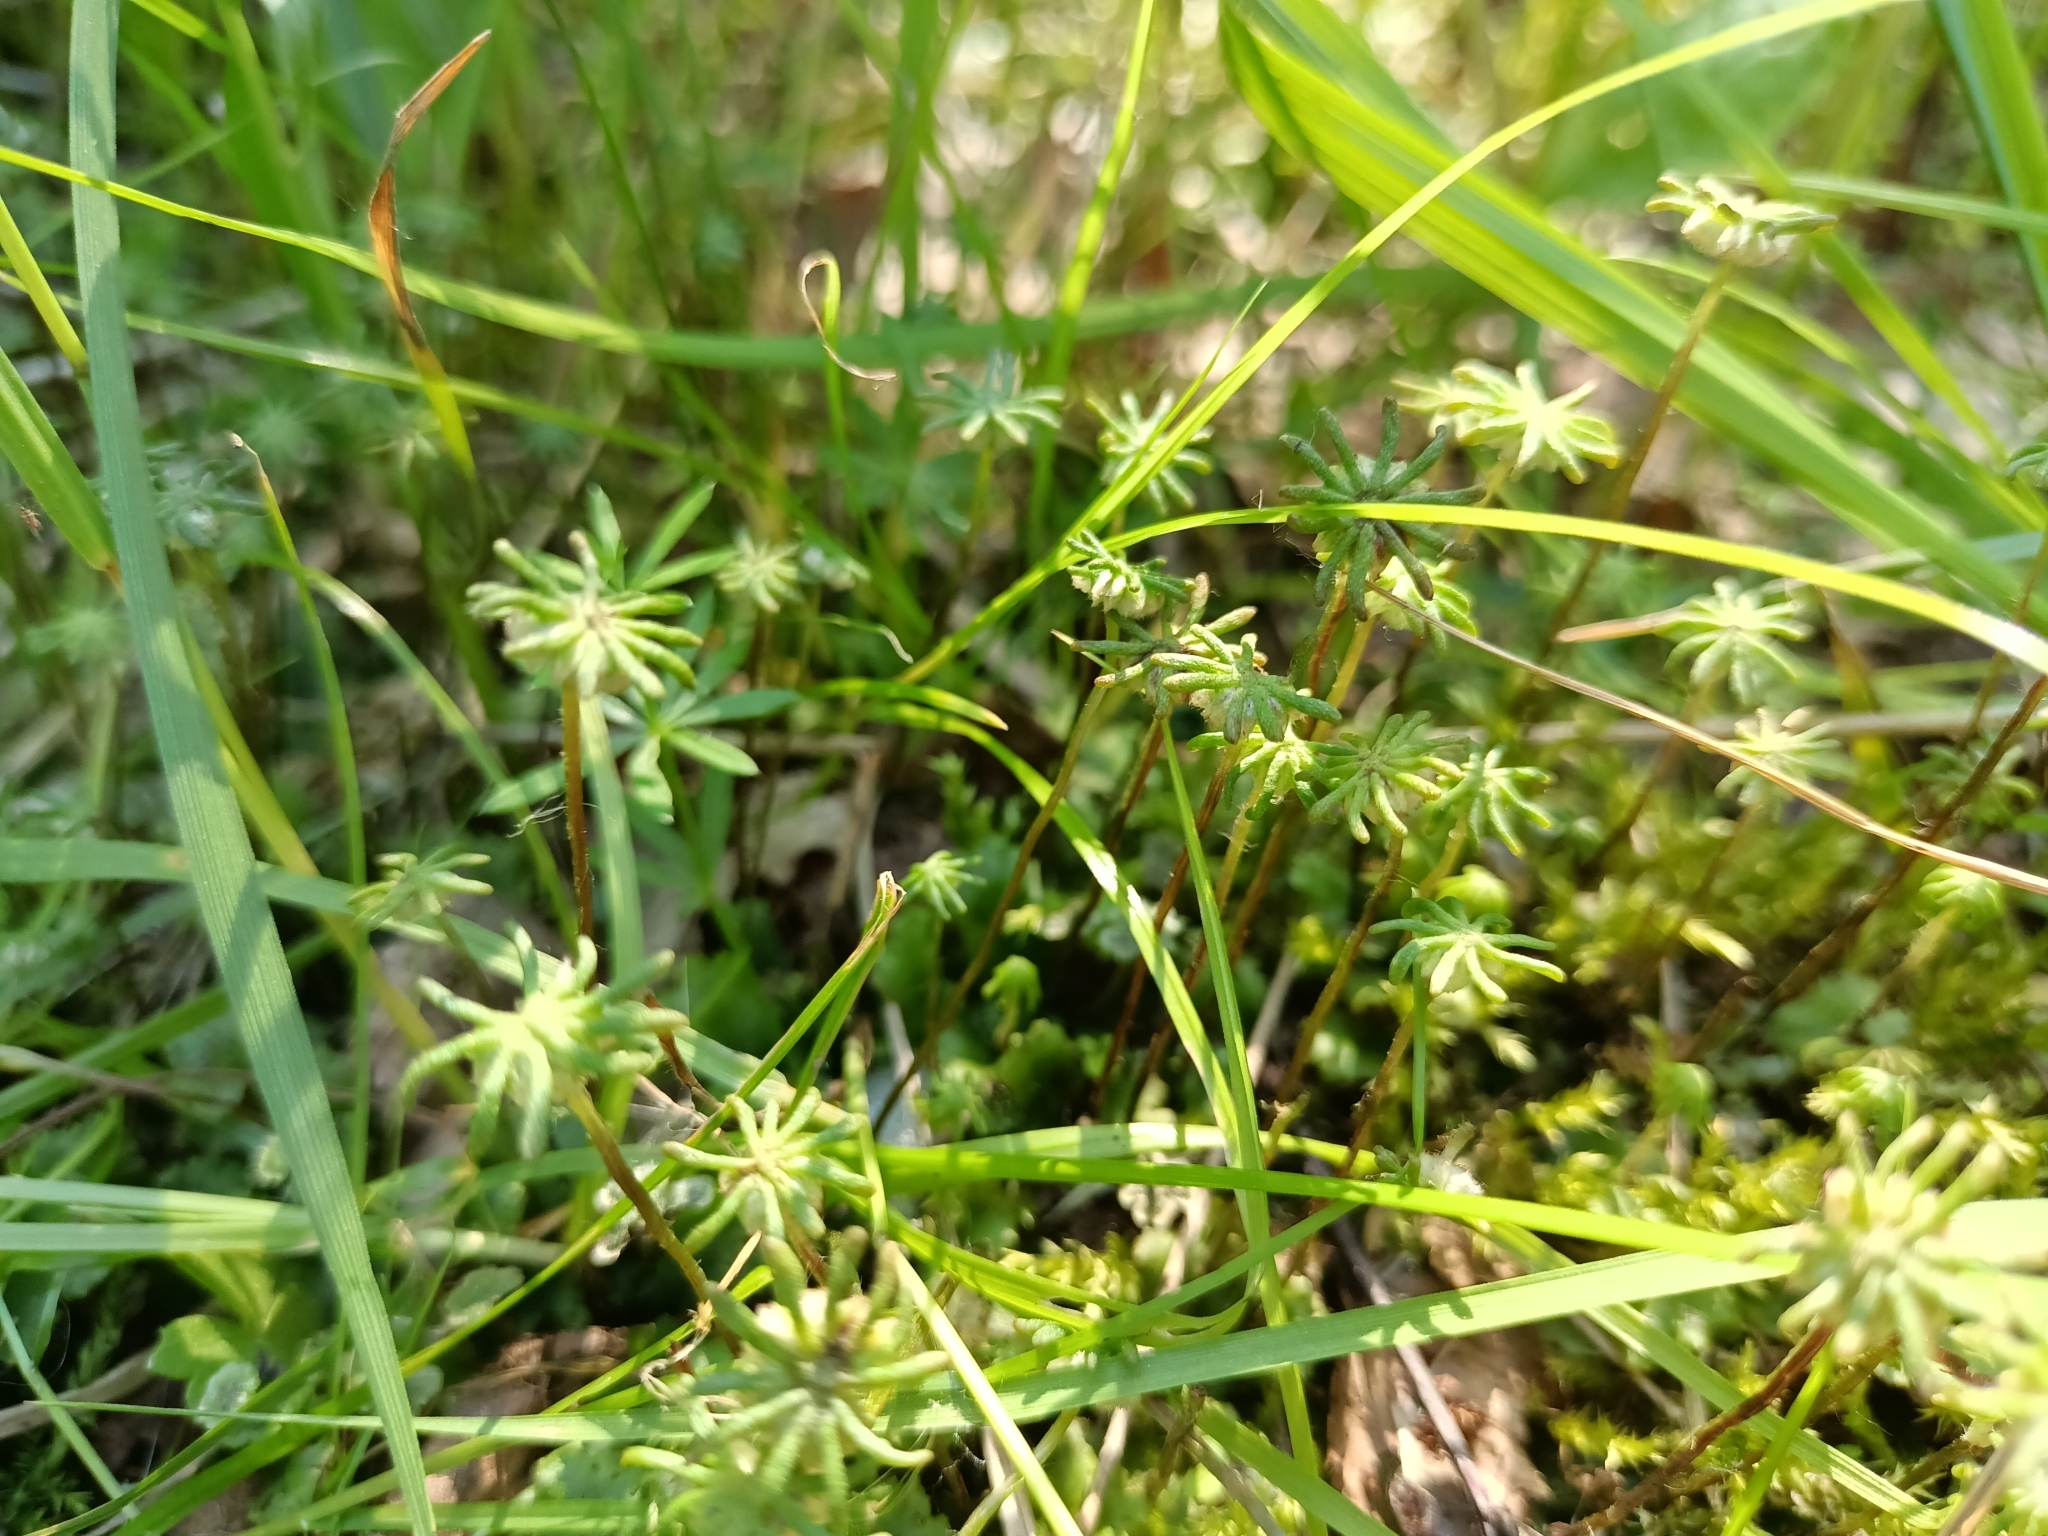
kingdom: Plantae
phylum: Marchantiophyta
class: Marchantiopsida
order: Marchantiales
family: Marchantiaceae
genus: Marchantia
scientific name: Marchantia polymorpha
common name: Common liverwort
